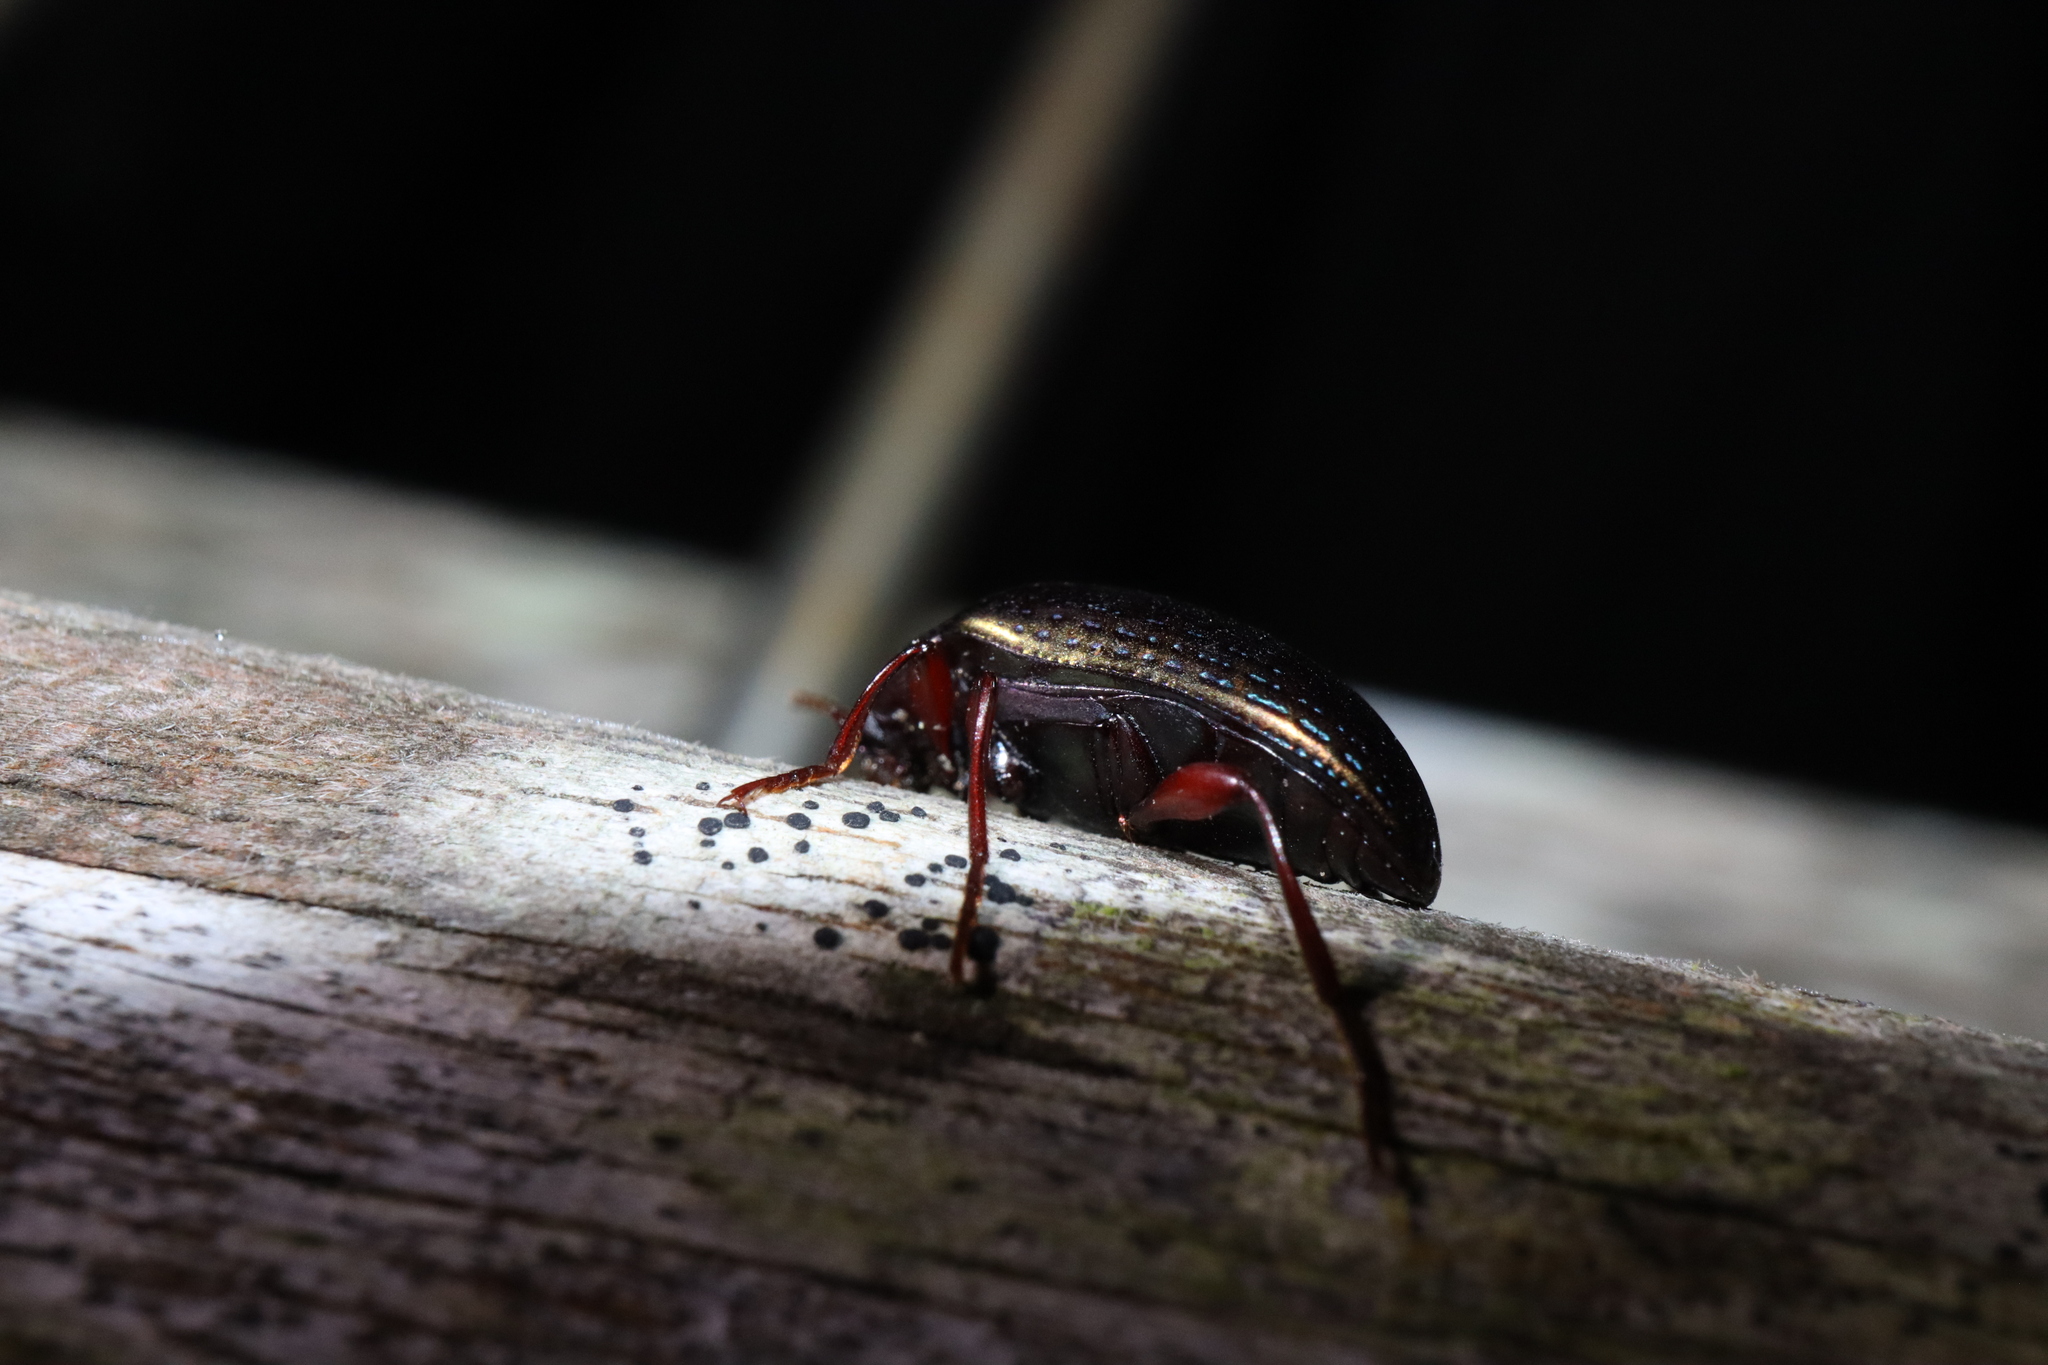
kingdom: Animalia
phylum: Arthropoda
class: Insecta
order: Coleoptera
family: Tenebrionidae
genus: Amarygmus
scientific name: Amarygmus
